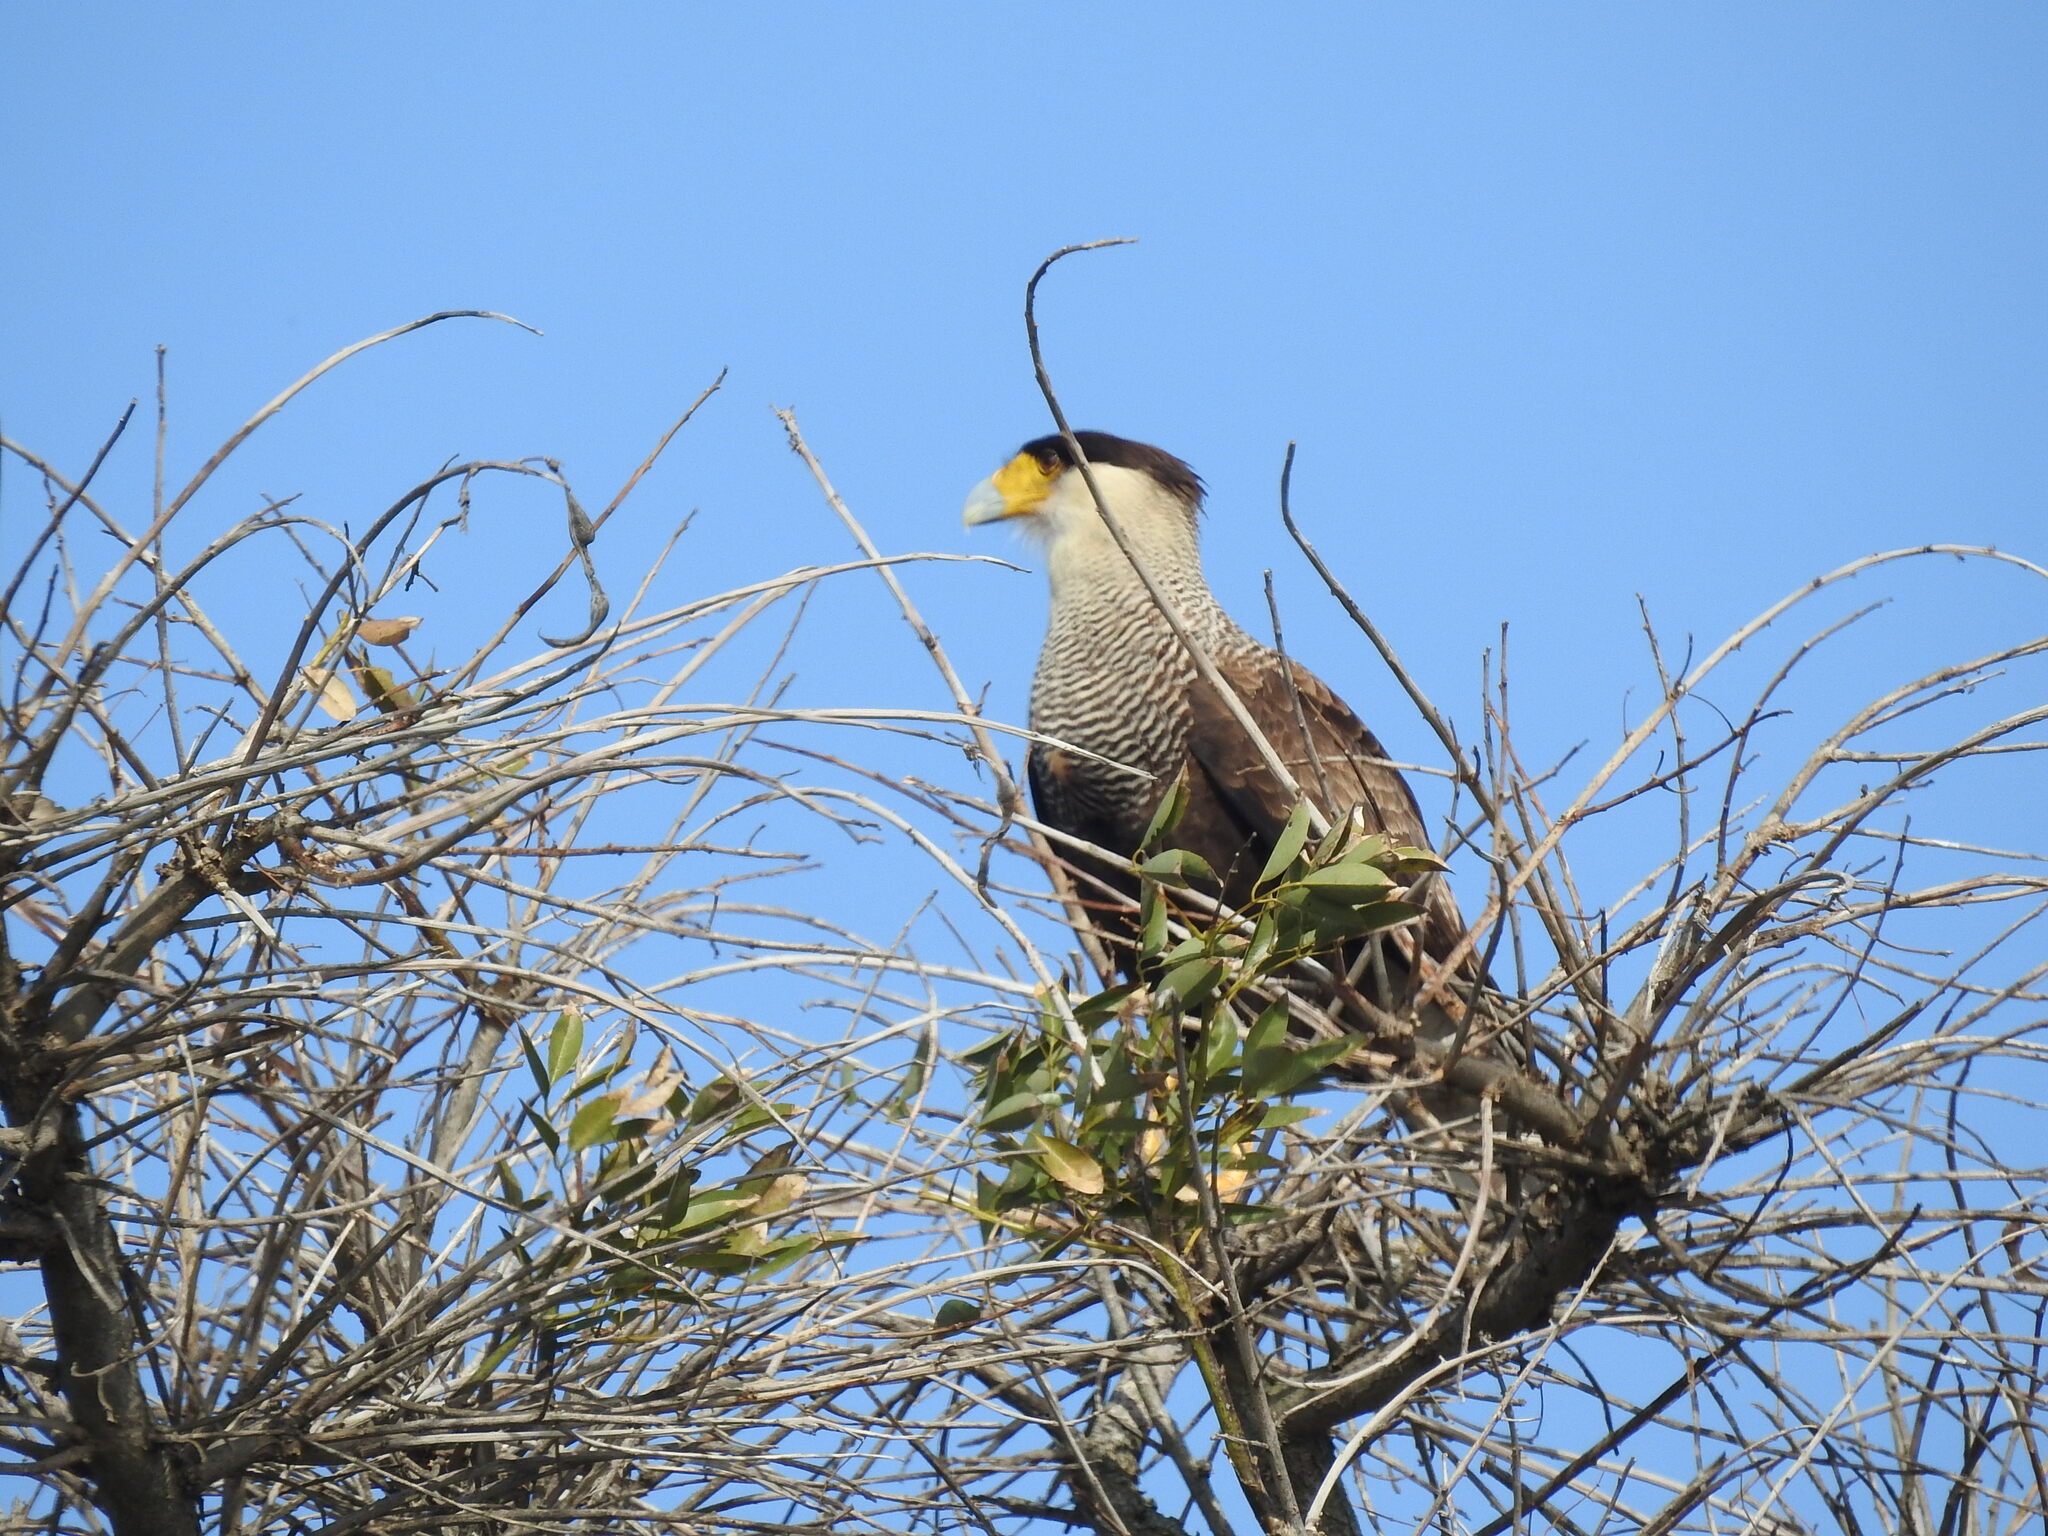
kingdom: Animalia
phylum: Chordata
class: Aves
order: Falconiformes
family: Falconidae
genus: Caracara
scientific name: Caracara plancus
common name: Southern caracara
